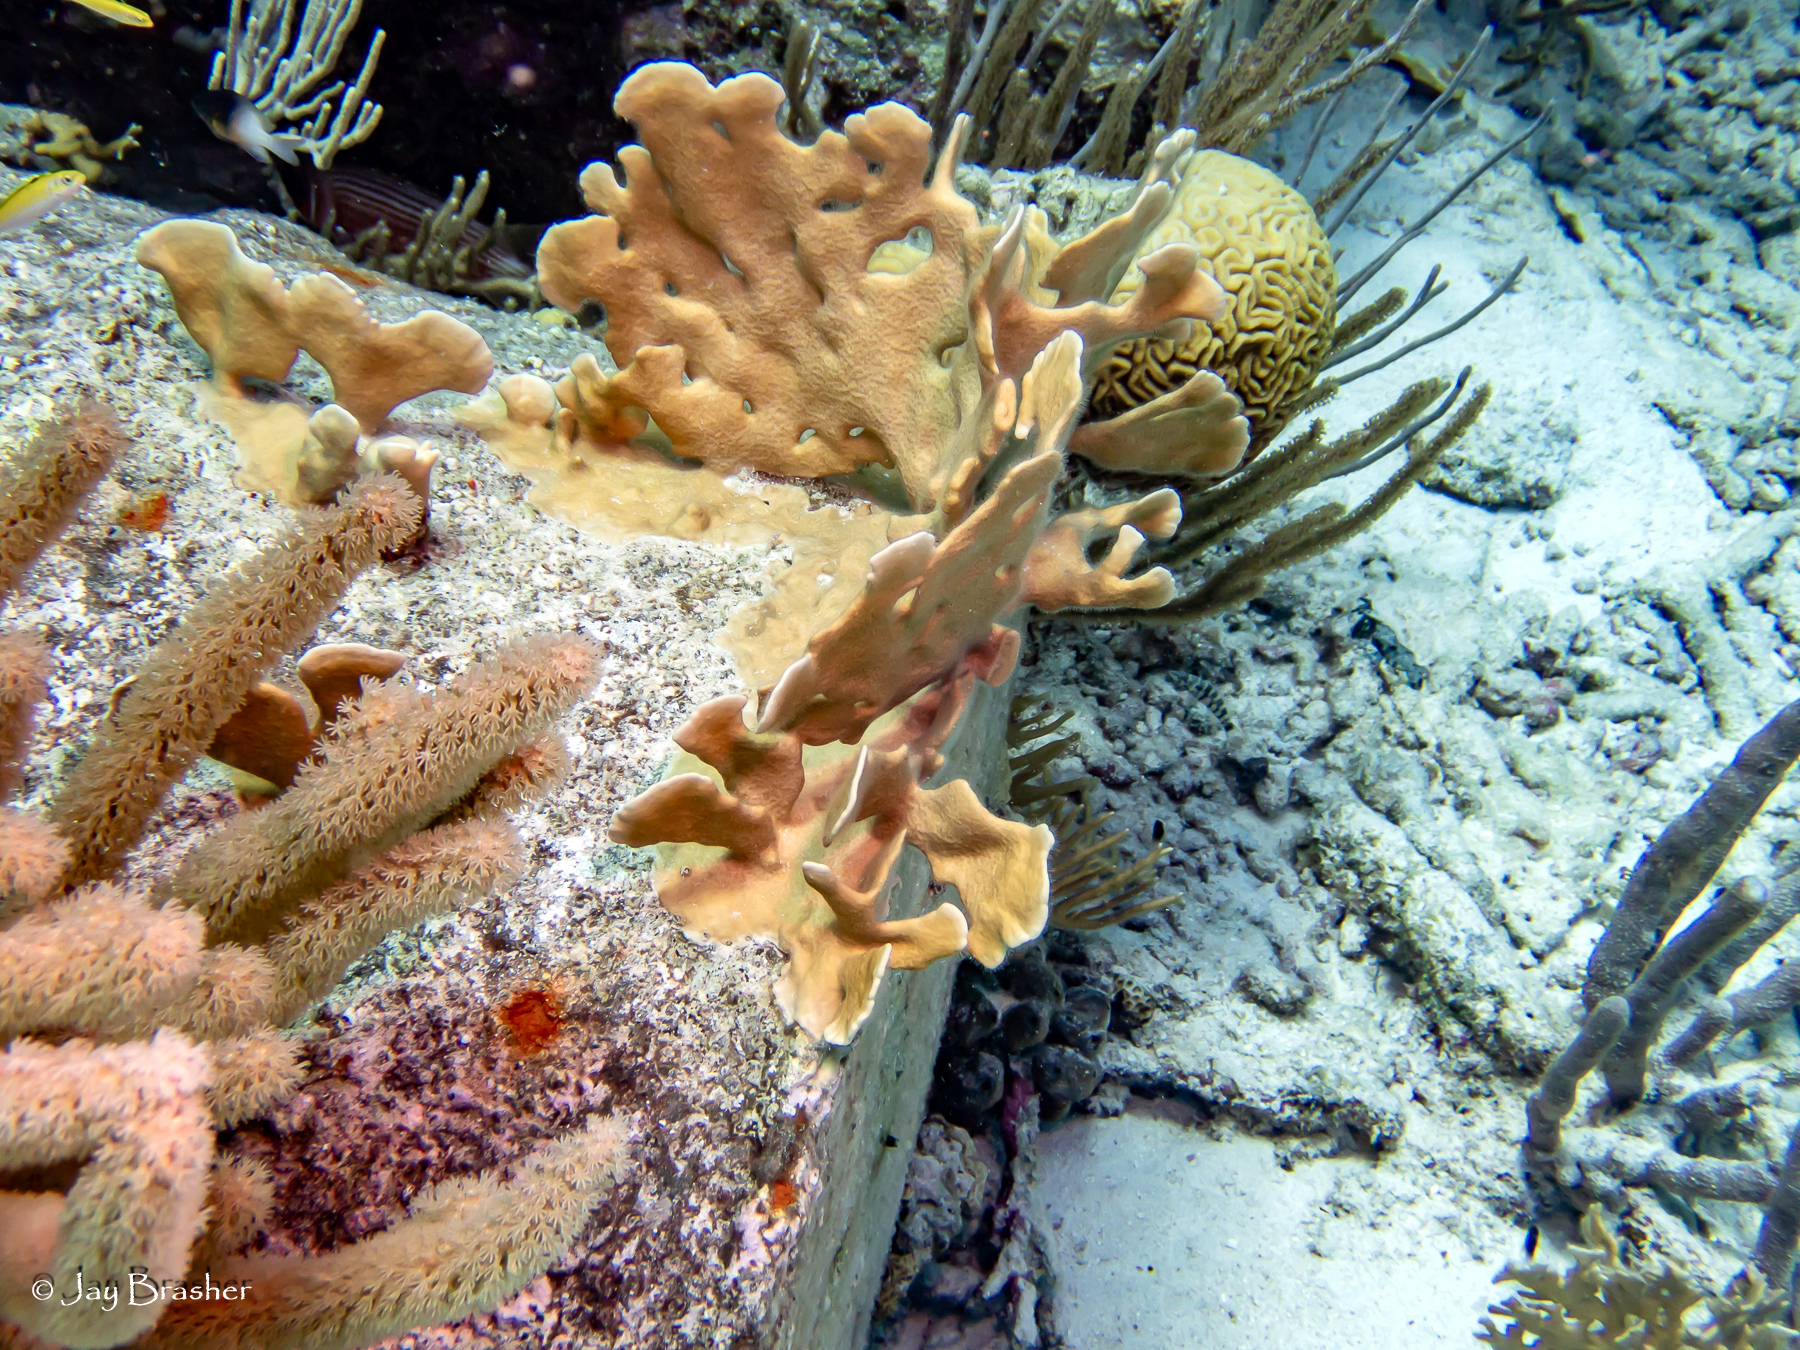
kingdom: Animalia
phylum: Cnidaria
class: Anthozoa
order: Scleractinia
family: Faviidae
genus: Diploria
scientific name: Diploria labyrinthiformis
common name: Grooved brain coral
